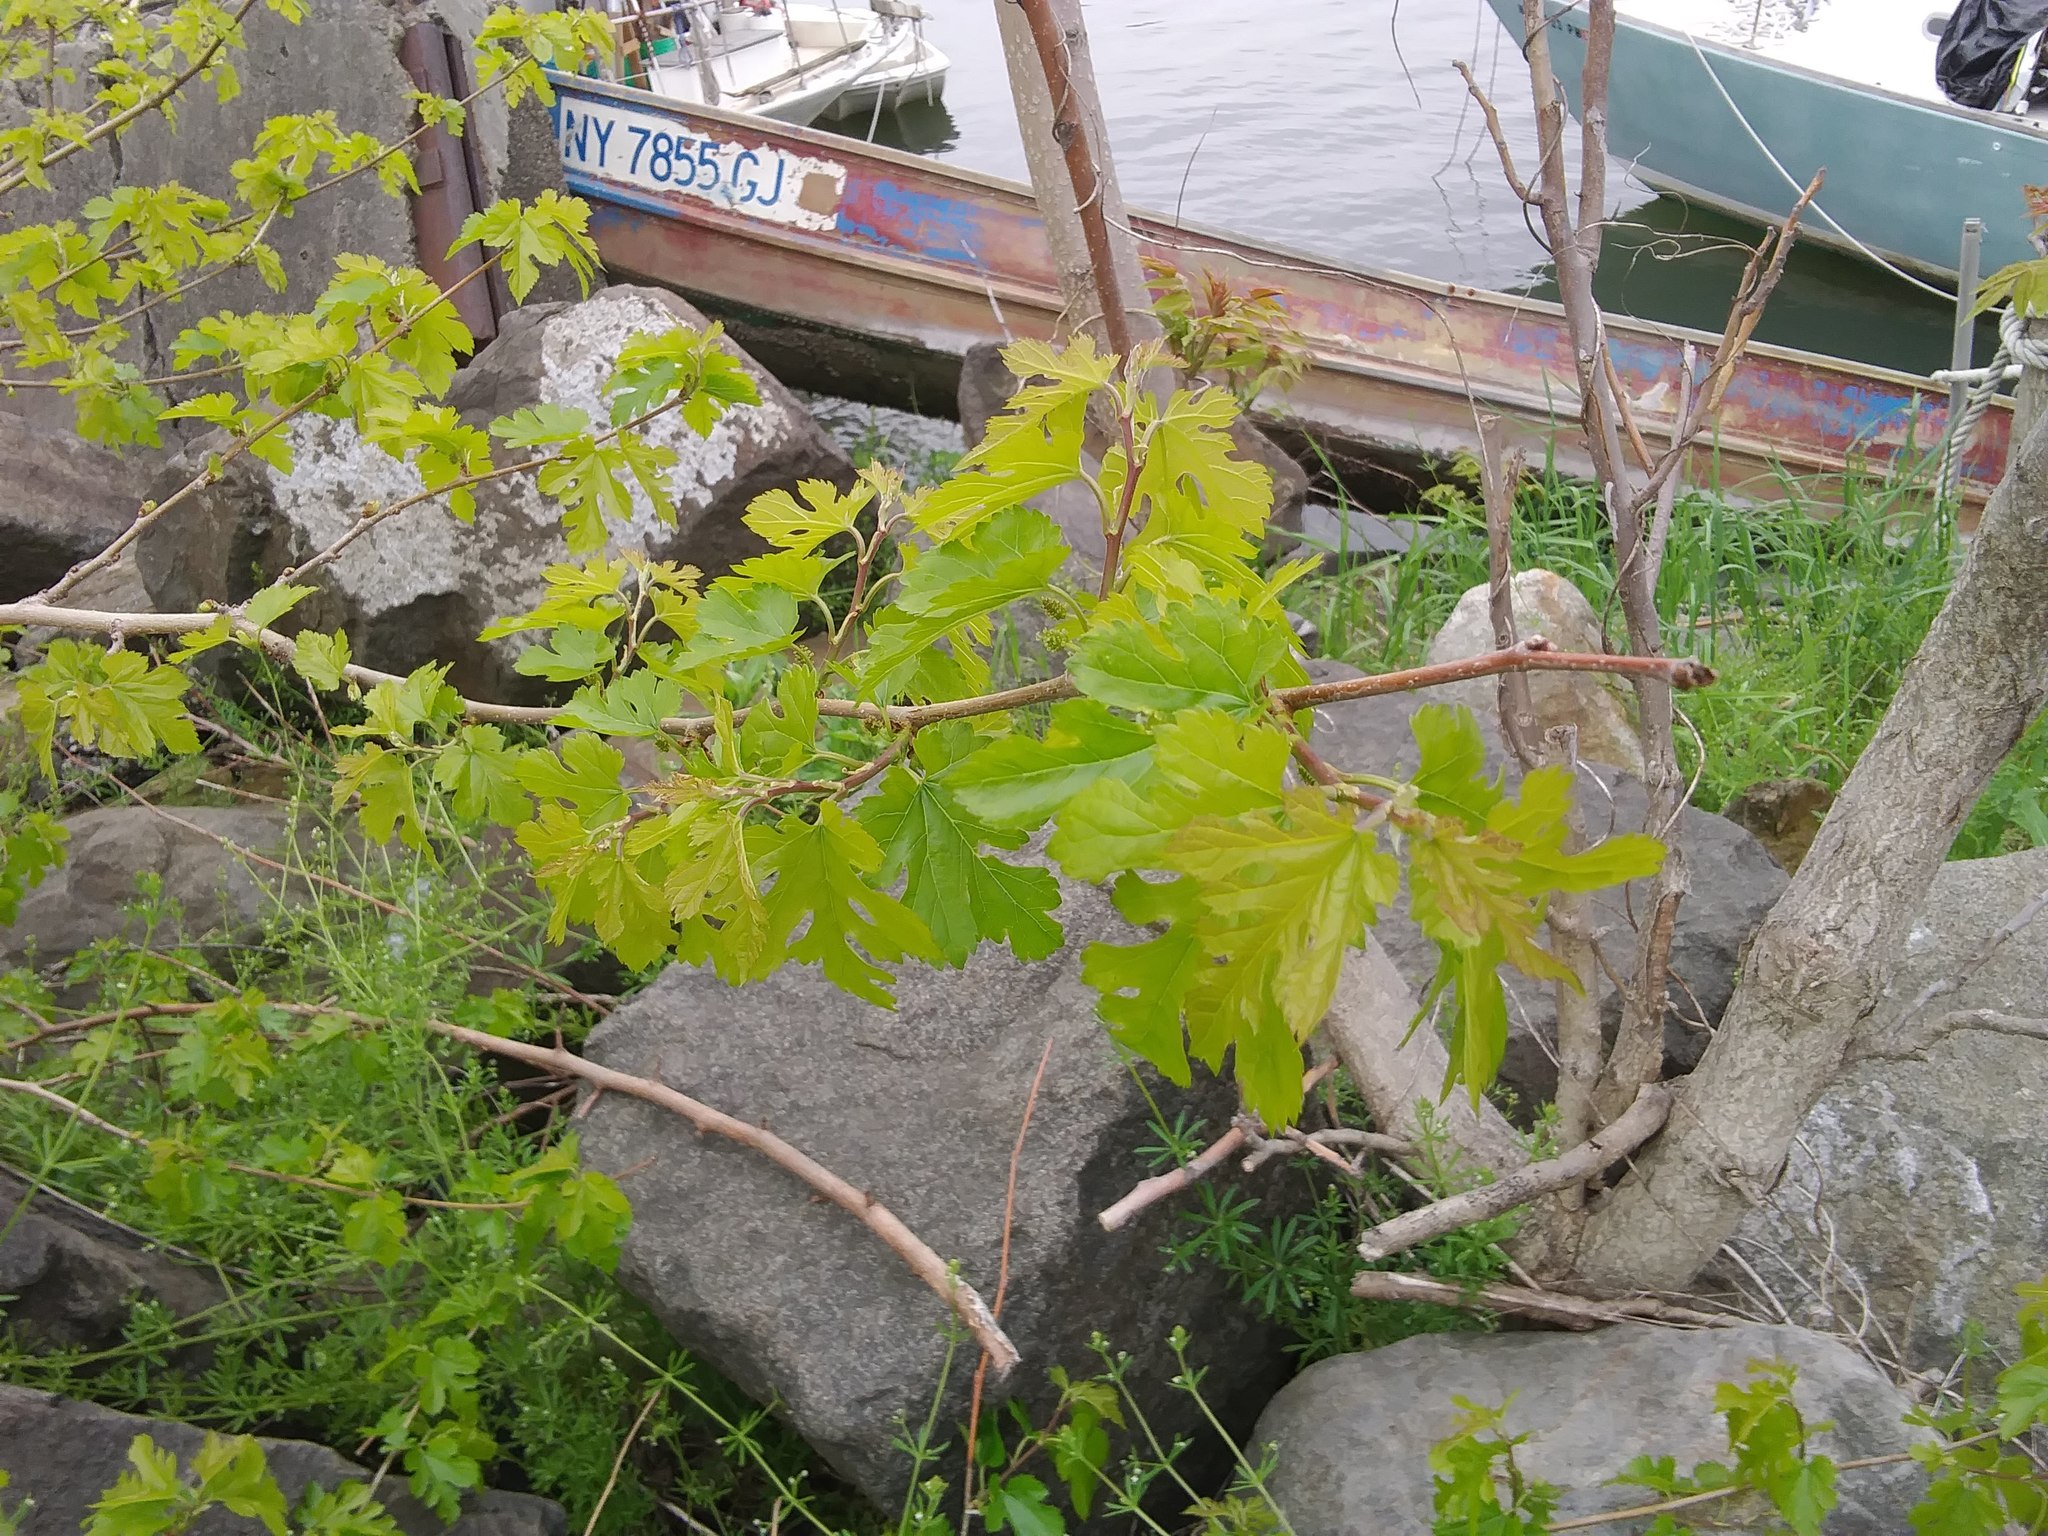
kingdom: Plantae
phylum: Tracheophyta
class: Magnoliopsida
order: Rosales
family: Moraceae
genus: Morus
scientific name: Morus alba
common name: White mulberry
